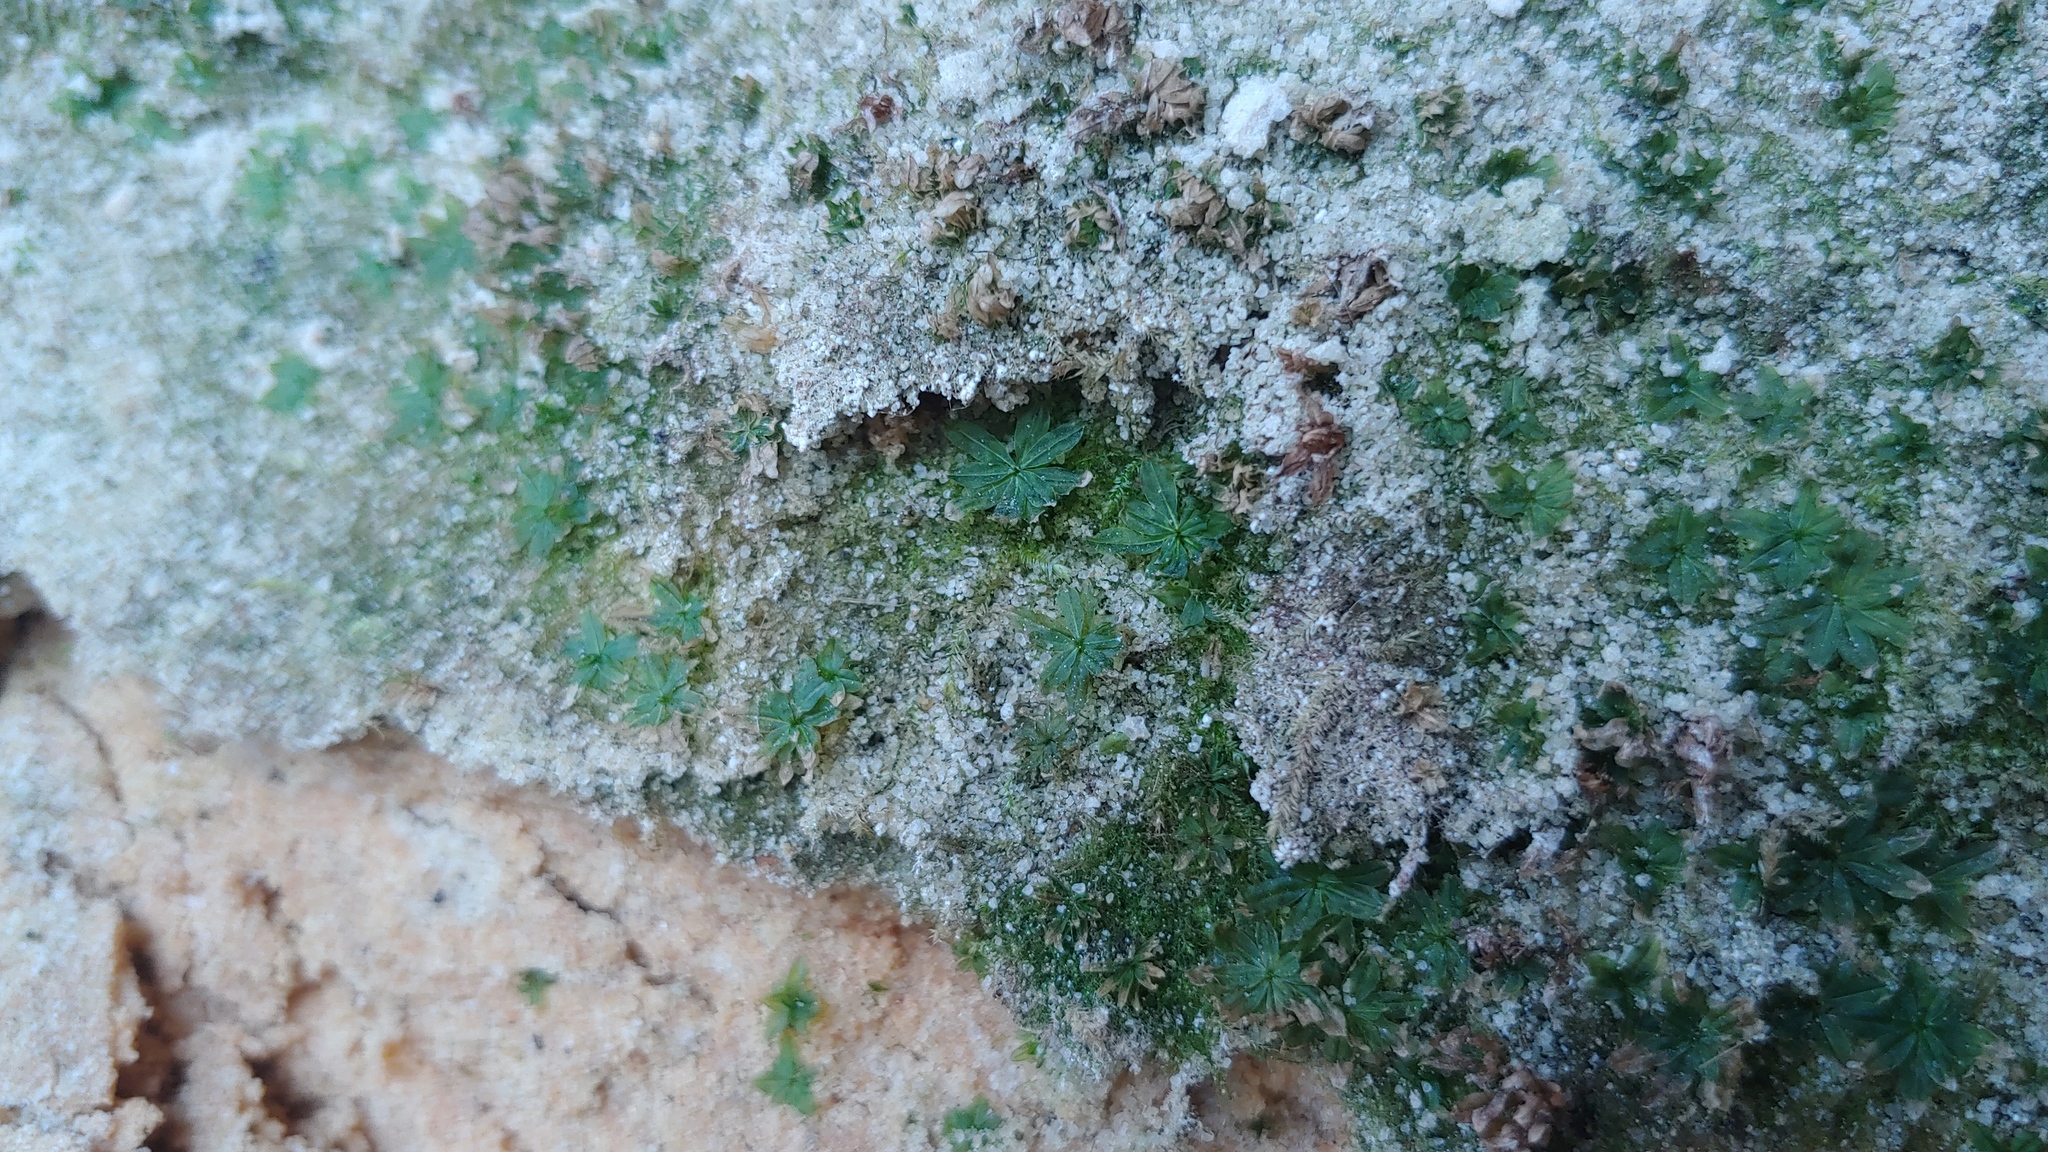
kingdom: Plantae
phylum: Bryophyta
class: Polytrichopsida
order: Polytrichales
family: Polytrichaceae
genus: Atrichum
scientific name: Atrichum crispum
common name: Fountain smoothcap
